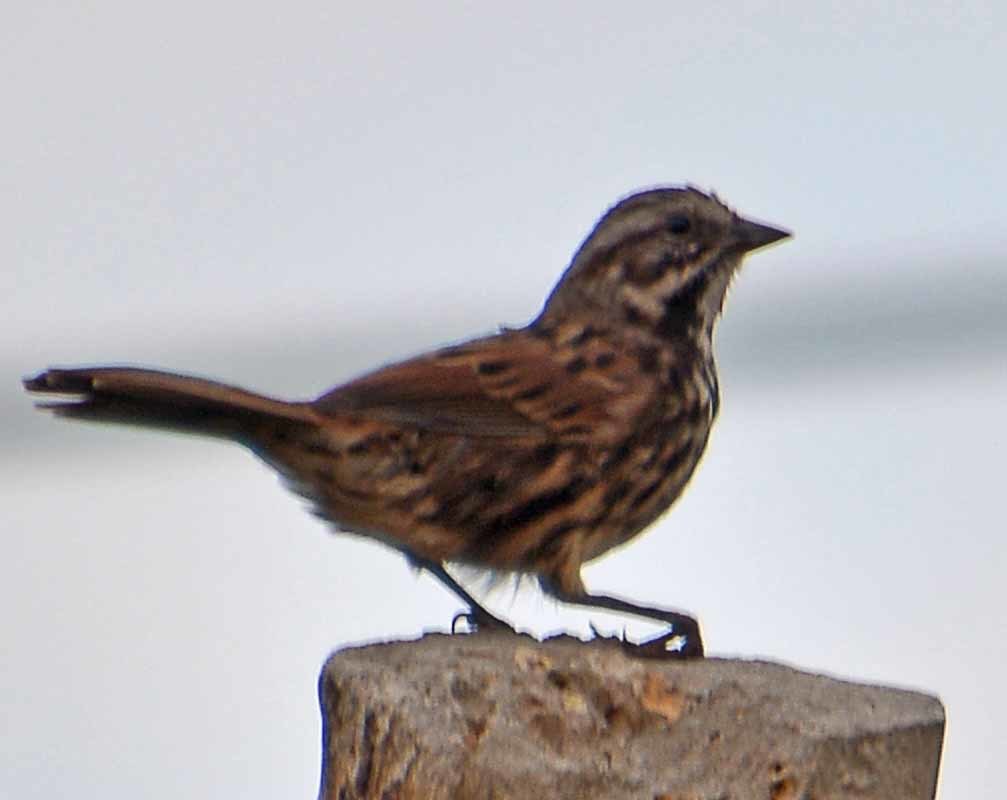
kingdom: Animalia
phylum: Chordata
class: Aves
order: Passeriformes
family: Passerellidae
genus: Melospiza
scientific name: Melospiza melodia
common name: Song sparrow
